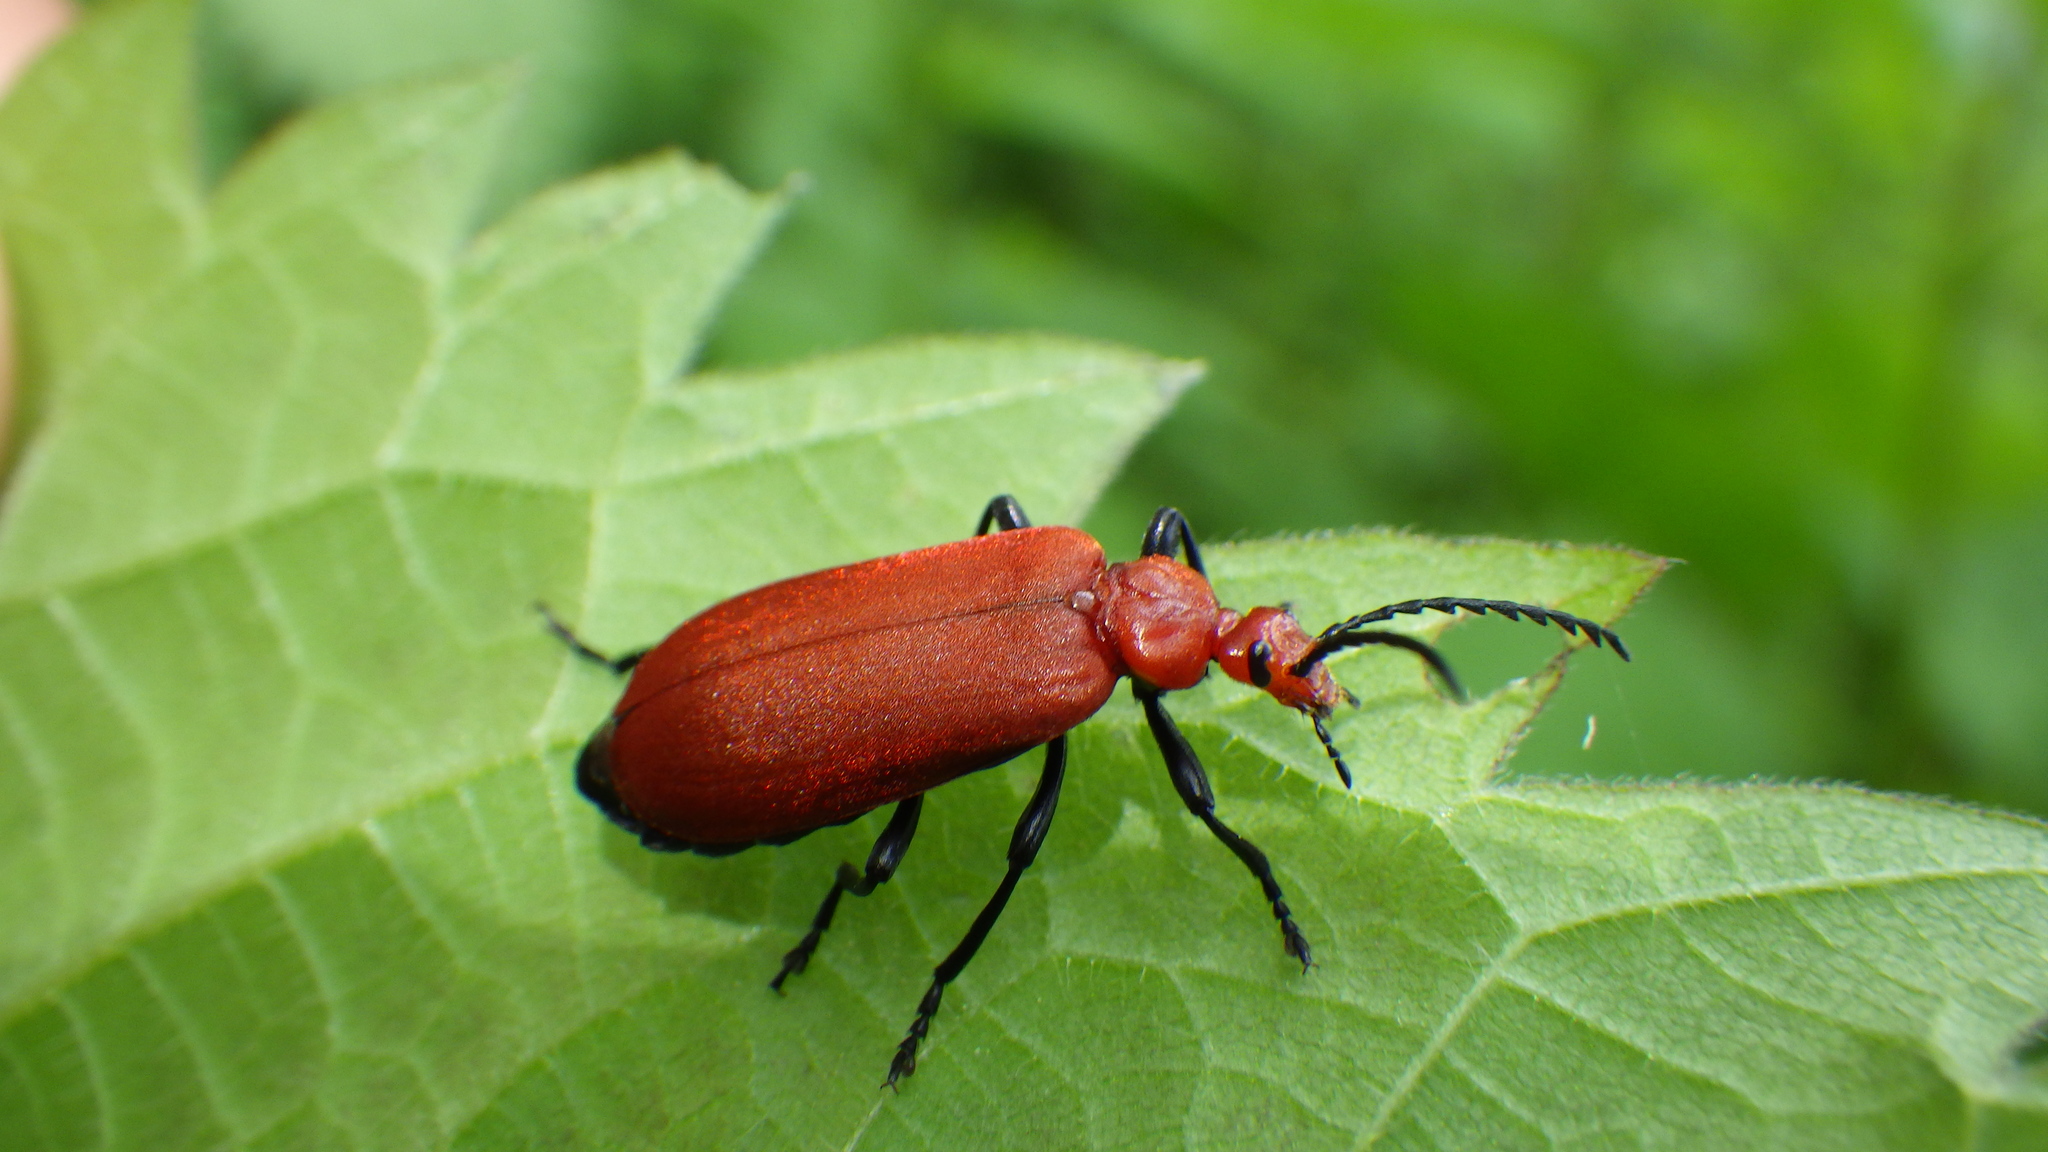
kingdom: Animalia
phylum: Arthropoda
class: Insecta
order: Coleoptera
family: Pyrochroidae
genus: Pyrochroa
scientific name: Pyrochroa serraticornis
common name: Red-headed cardinal beetle
